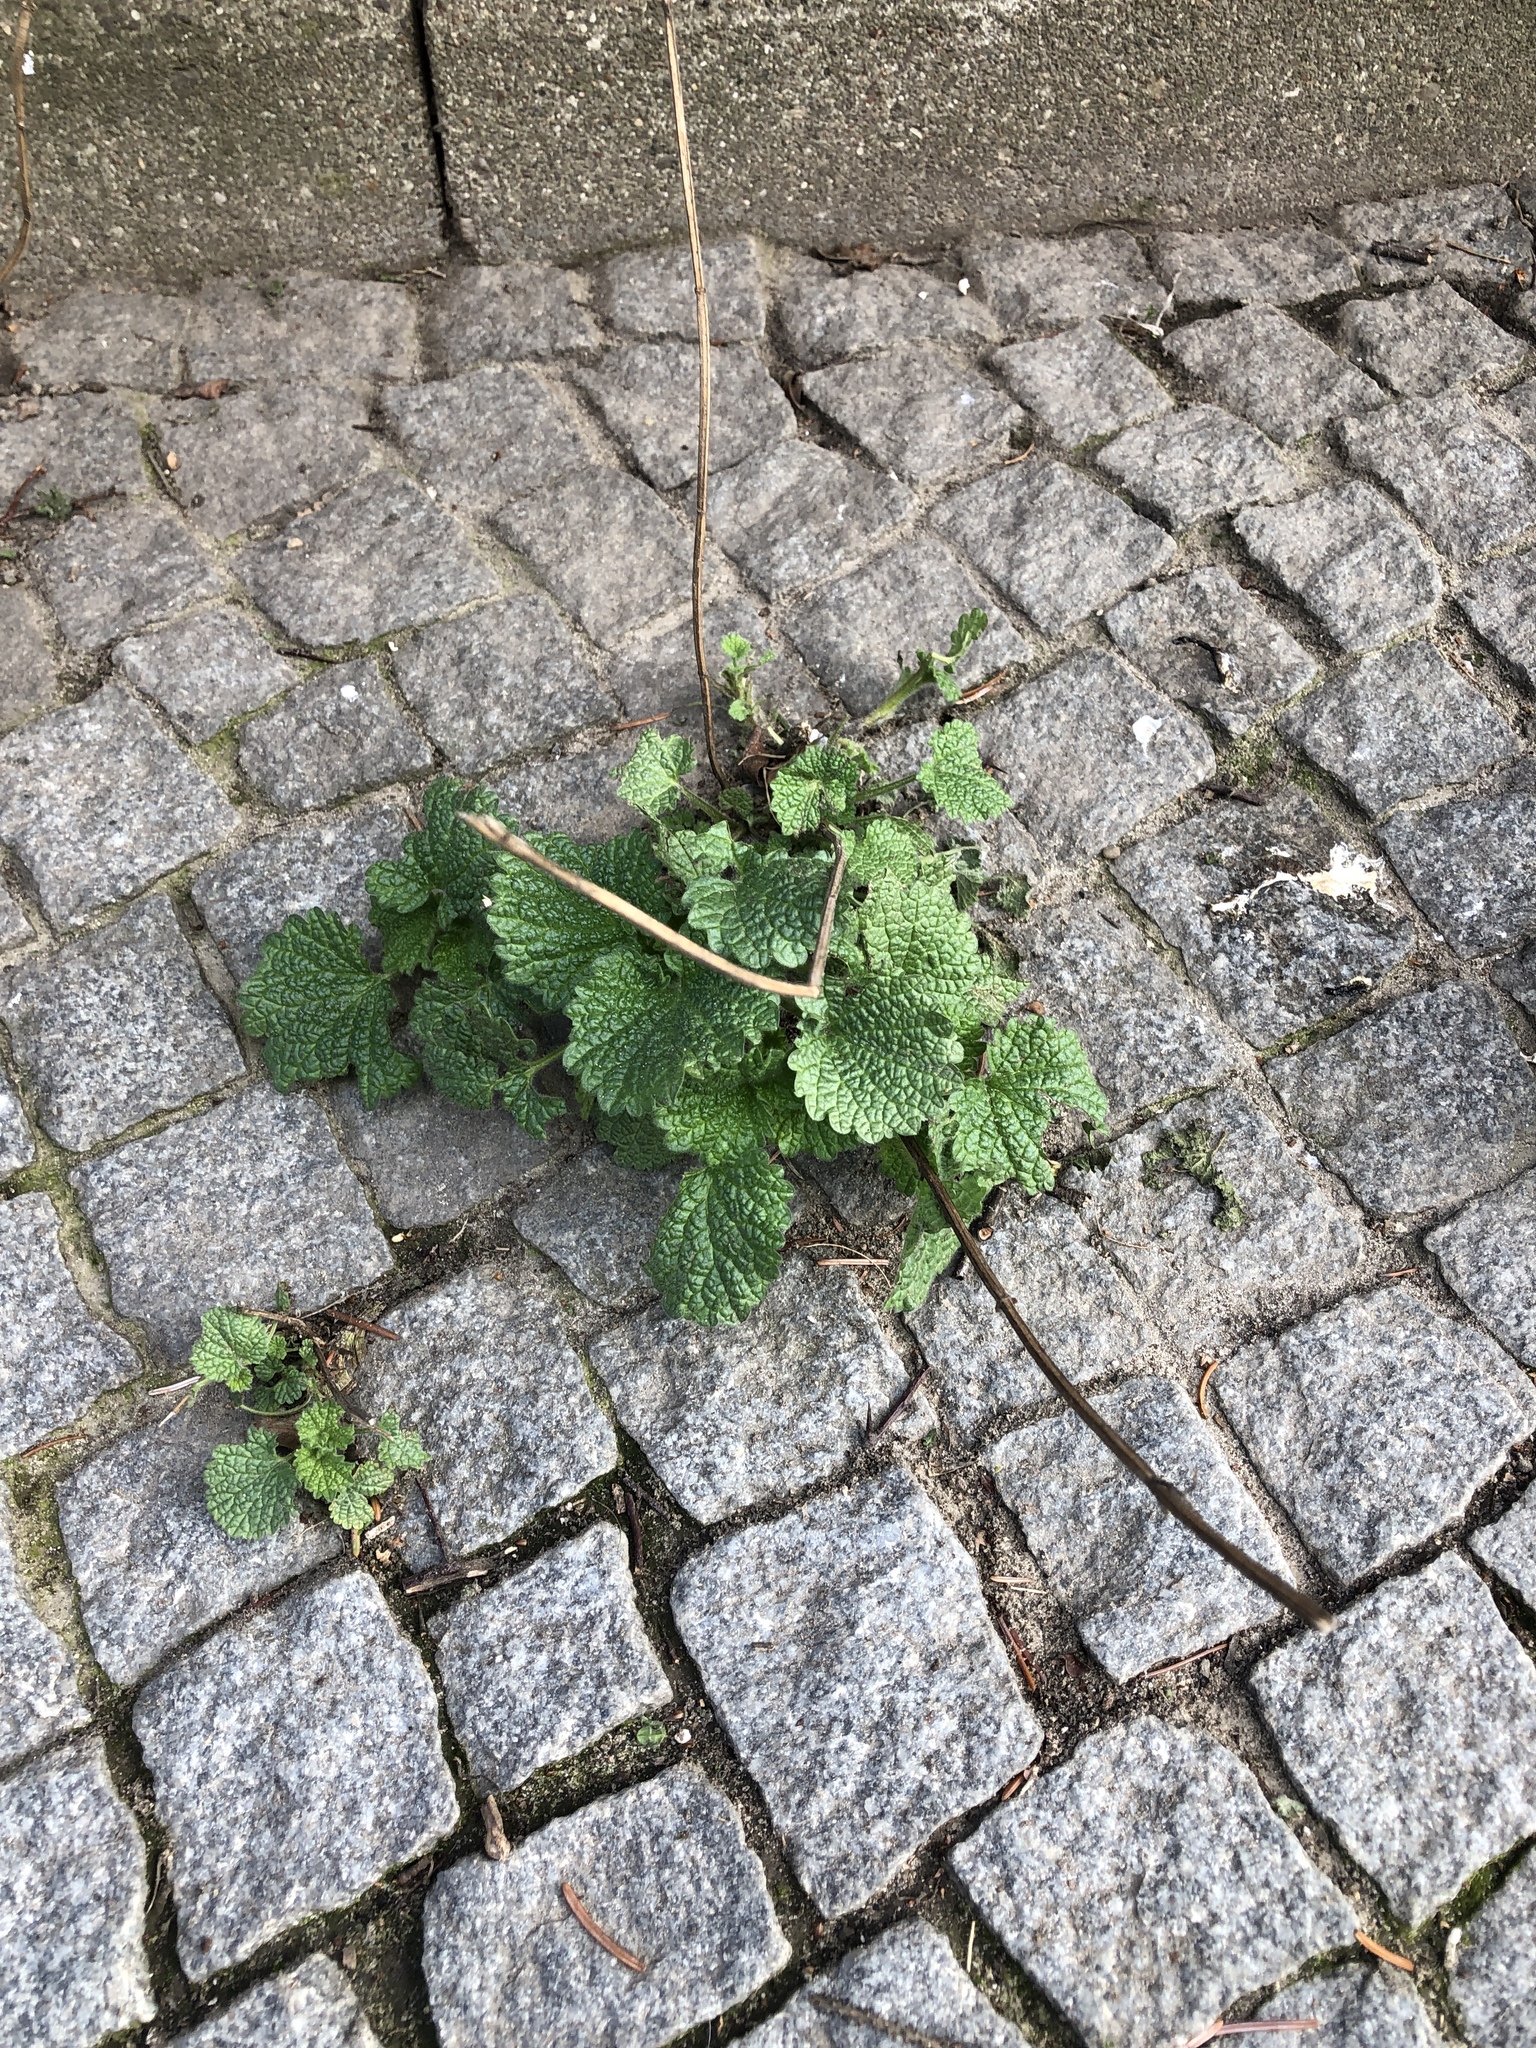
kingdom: Plantae
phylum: Tracheophyta
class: Magnoliopsida
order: Lamiales
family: Lamiaceae
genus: Ballota
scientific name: Ballota nigra
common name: Black horehound
